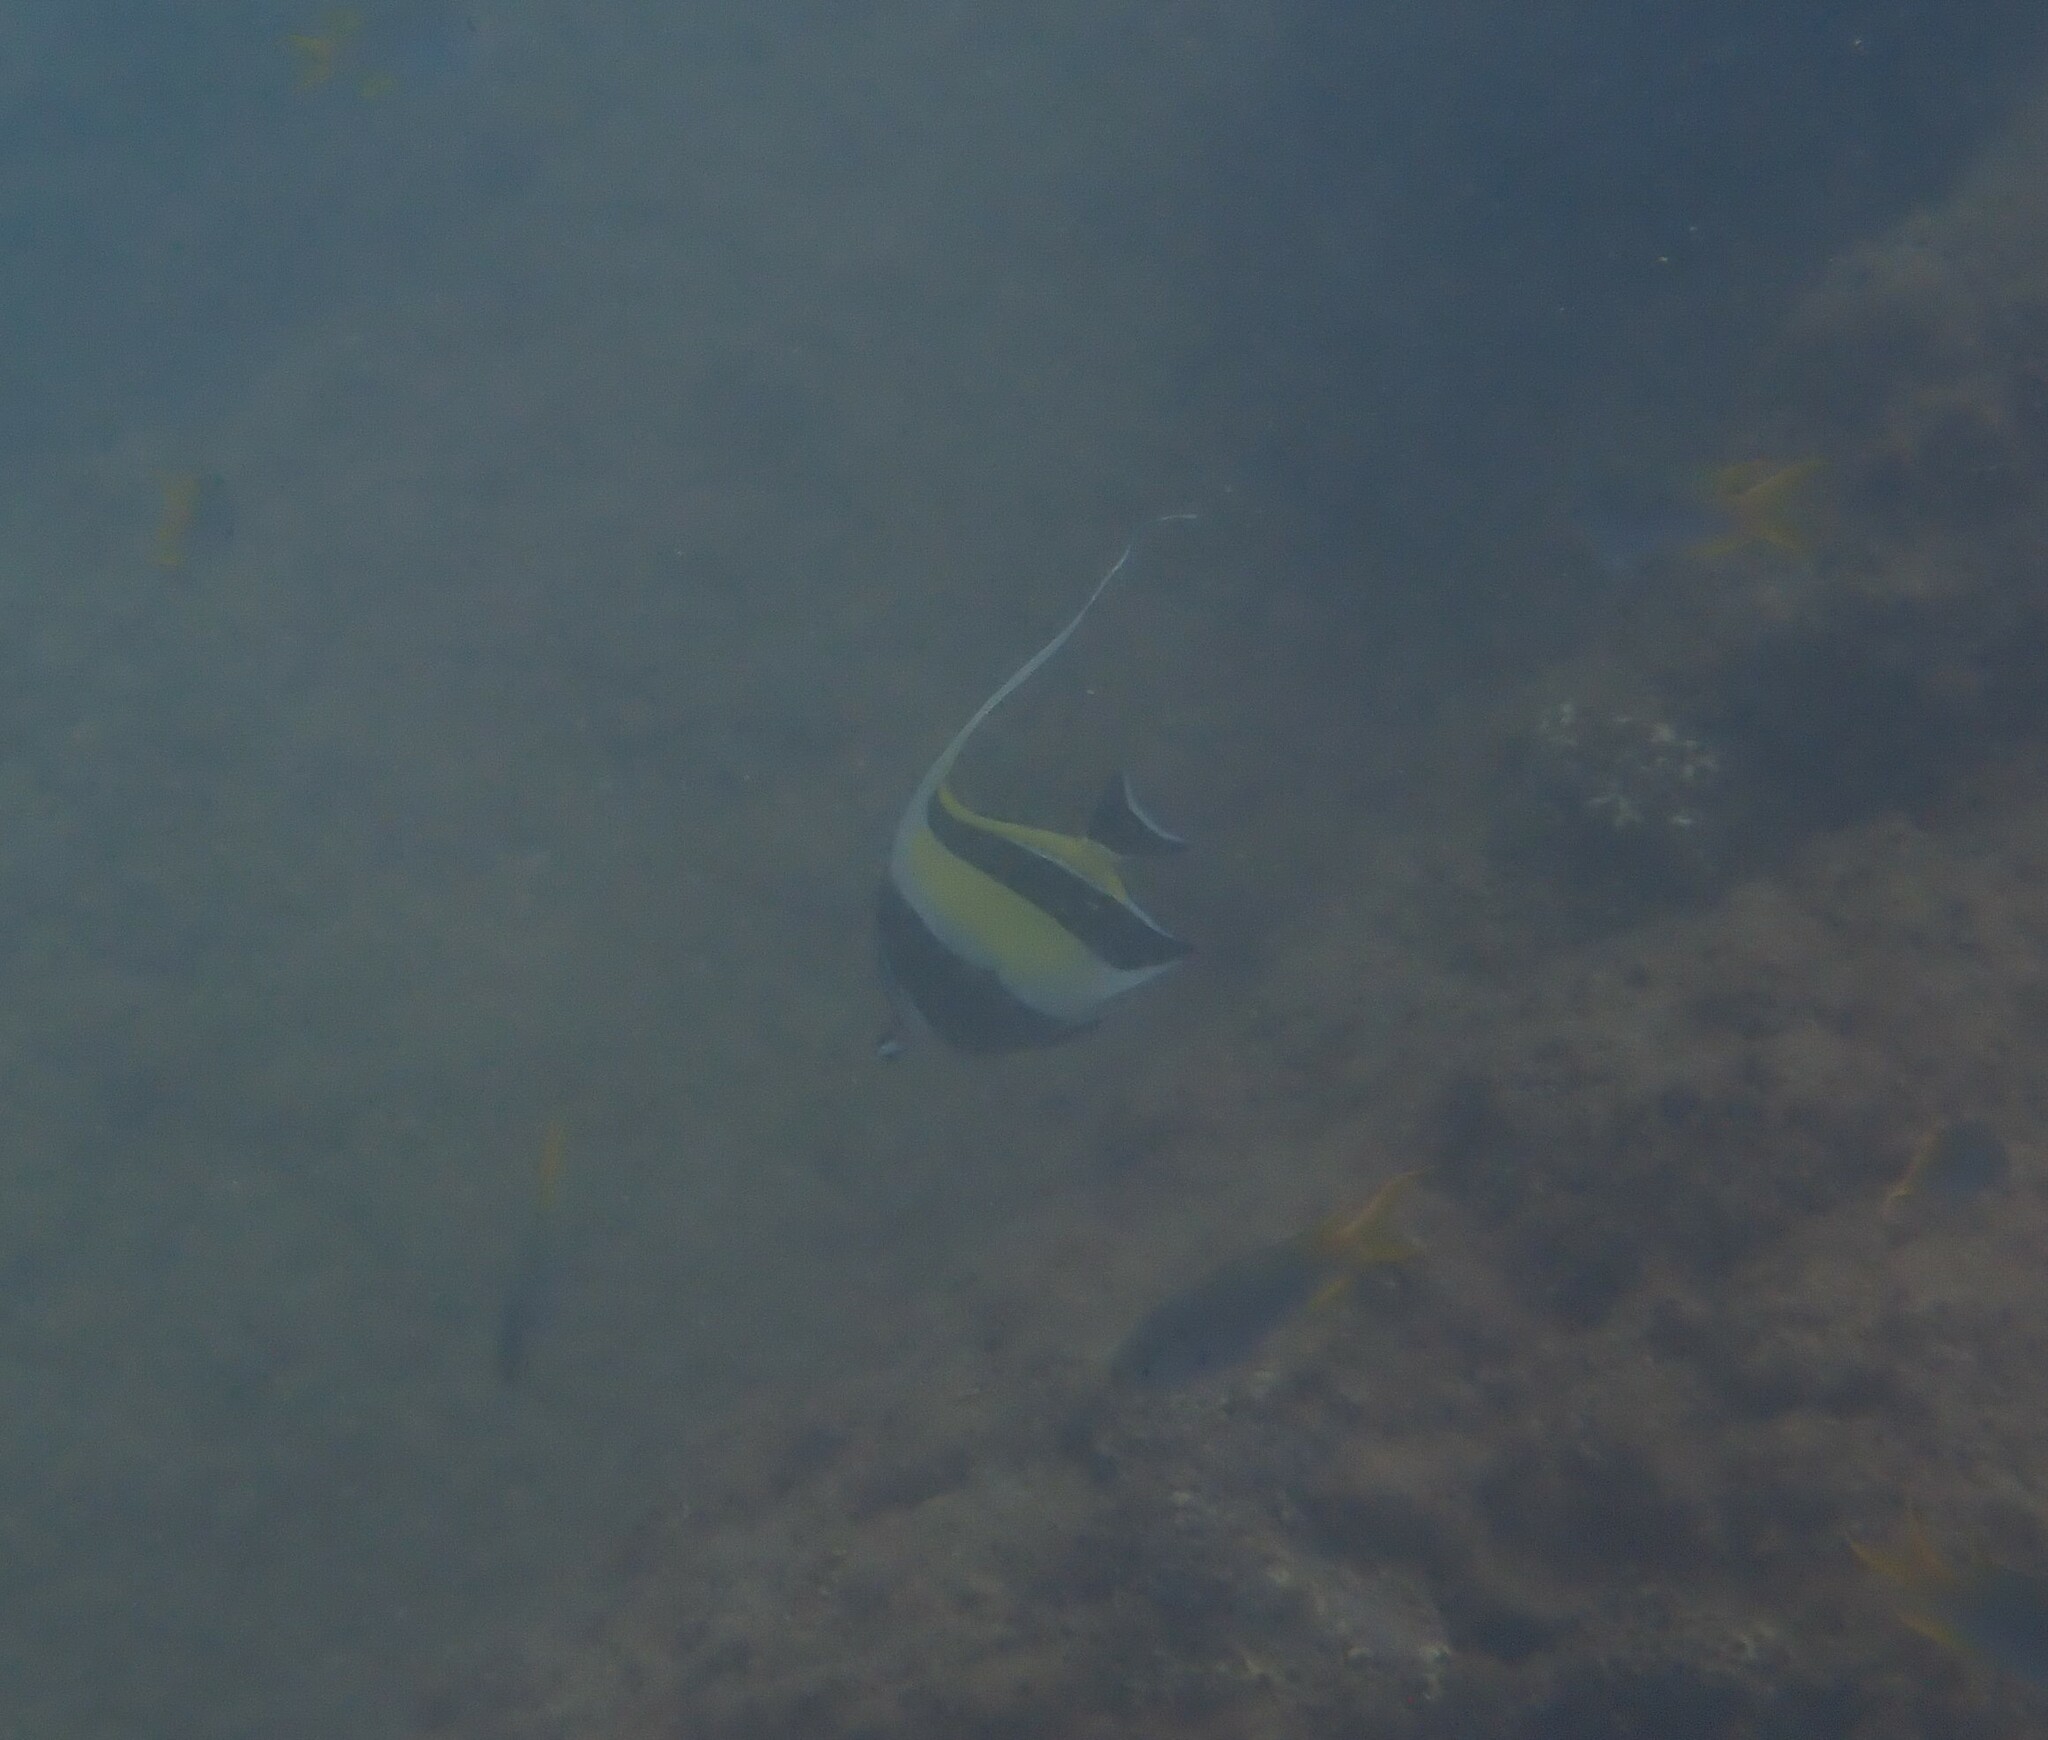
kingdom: Animalia
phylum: Chordata
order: Perciformes
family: Zanclidae
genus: Zanclus
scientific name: Zanclus cornutus
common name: Moorish idol
